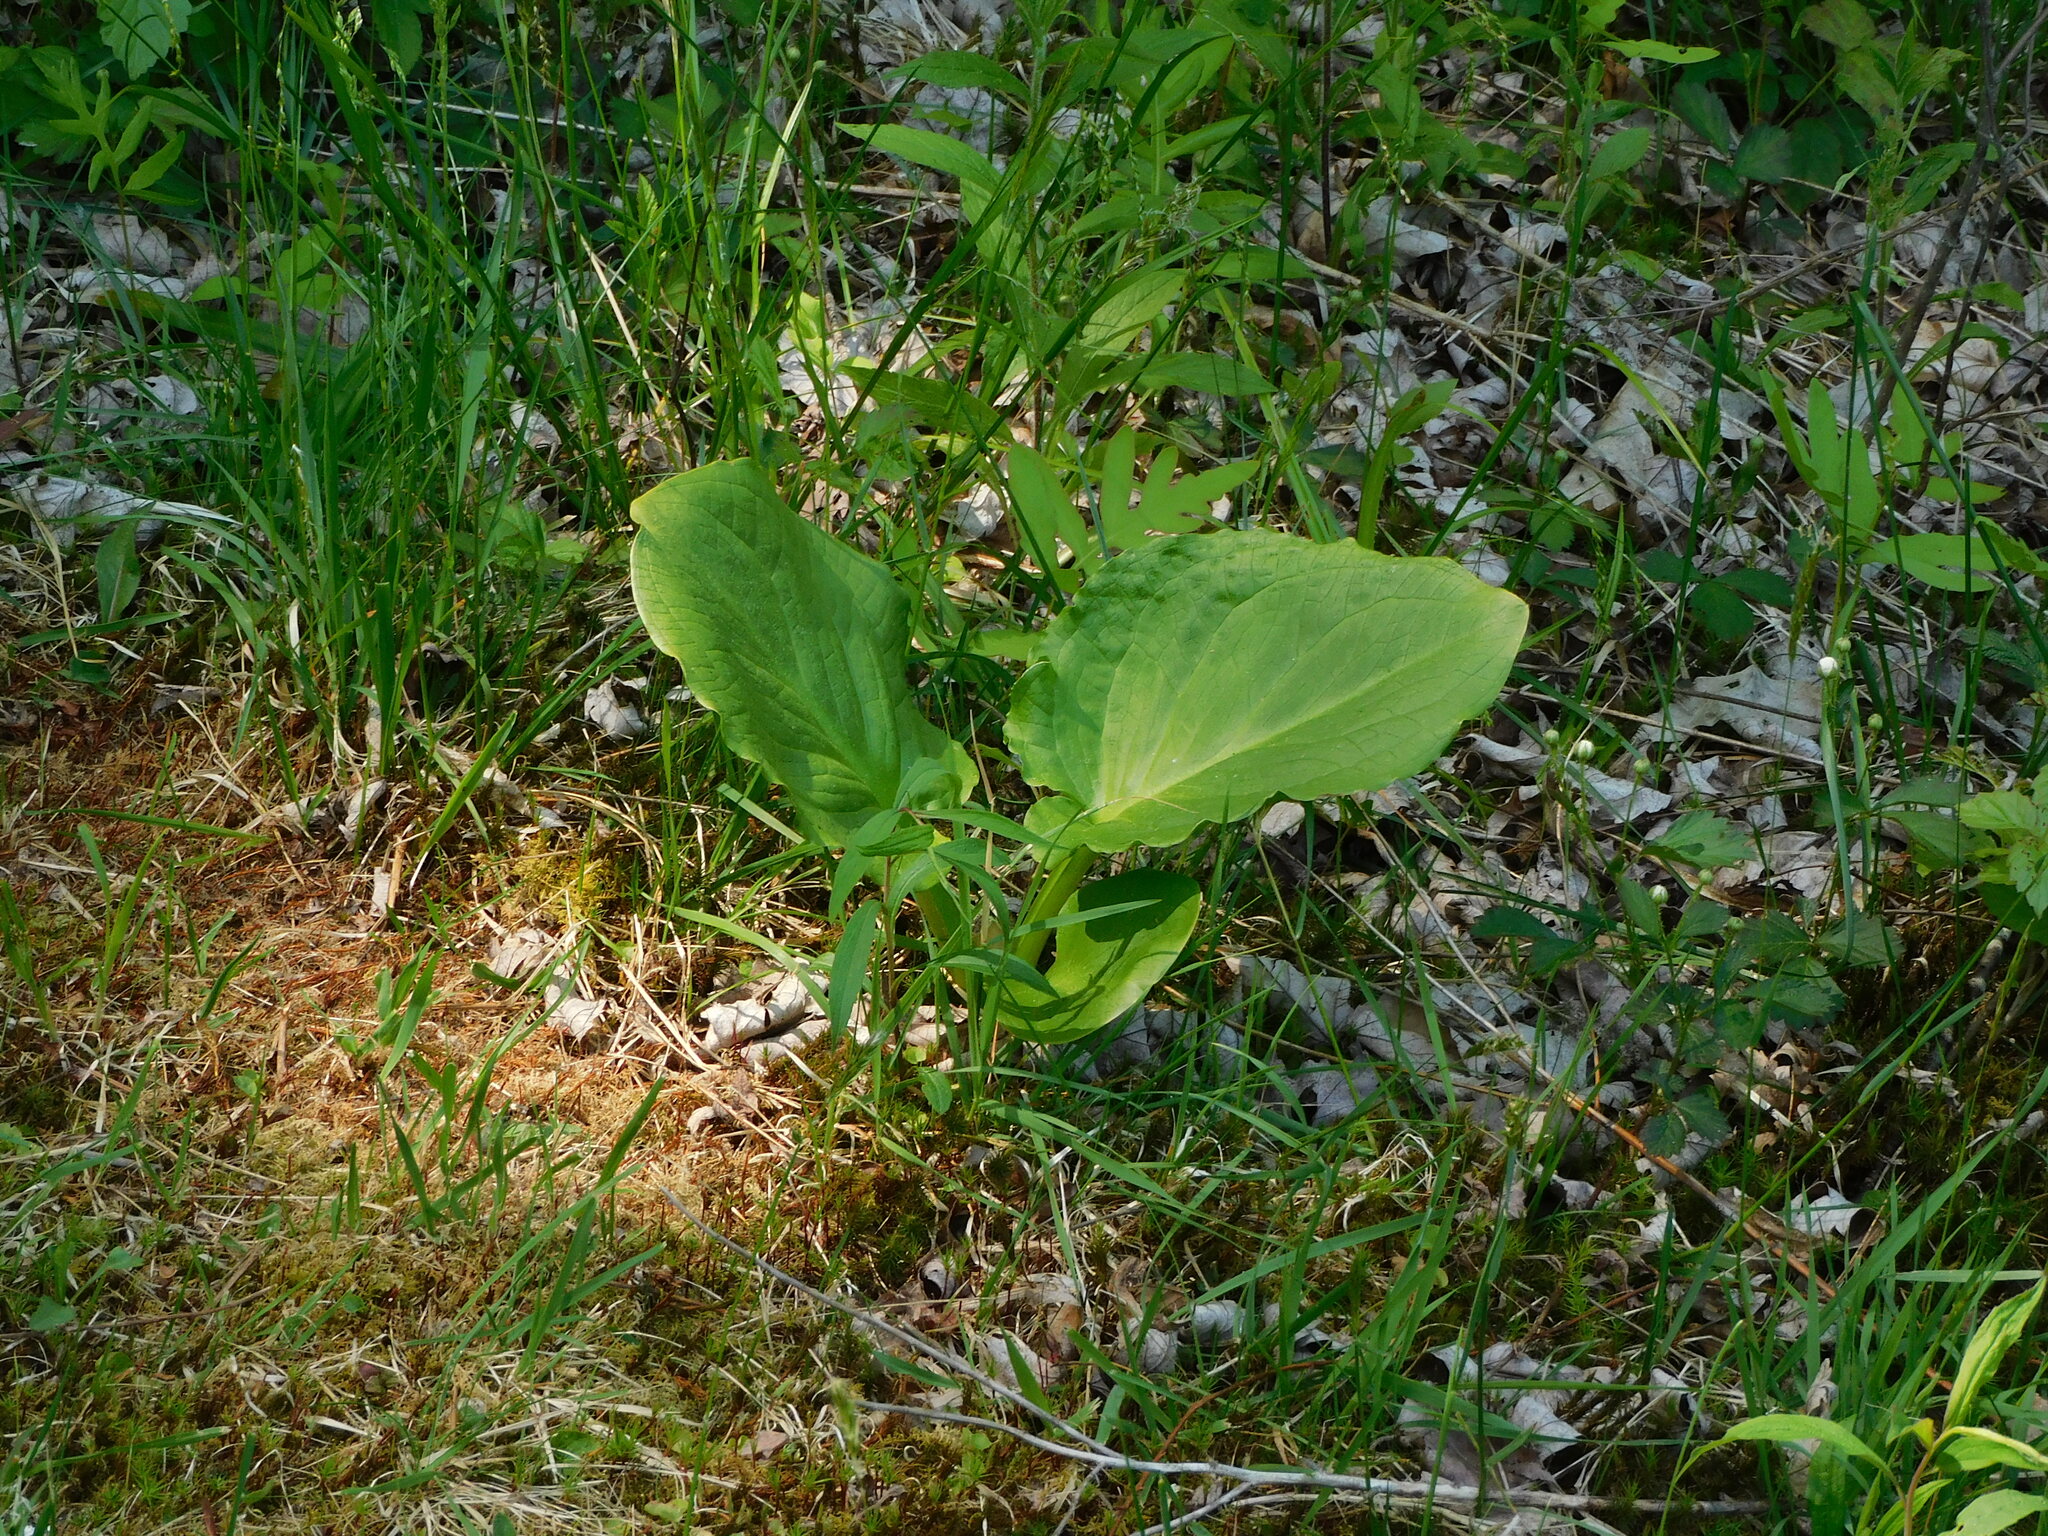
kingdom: Plantae
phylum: Tracheophyta
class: Liliopsida
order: Alismatales
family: Araceae
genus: Symplocarpus
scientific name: Symplocarpus foetidus
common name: Eastern skunk cabbage
